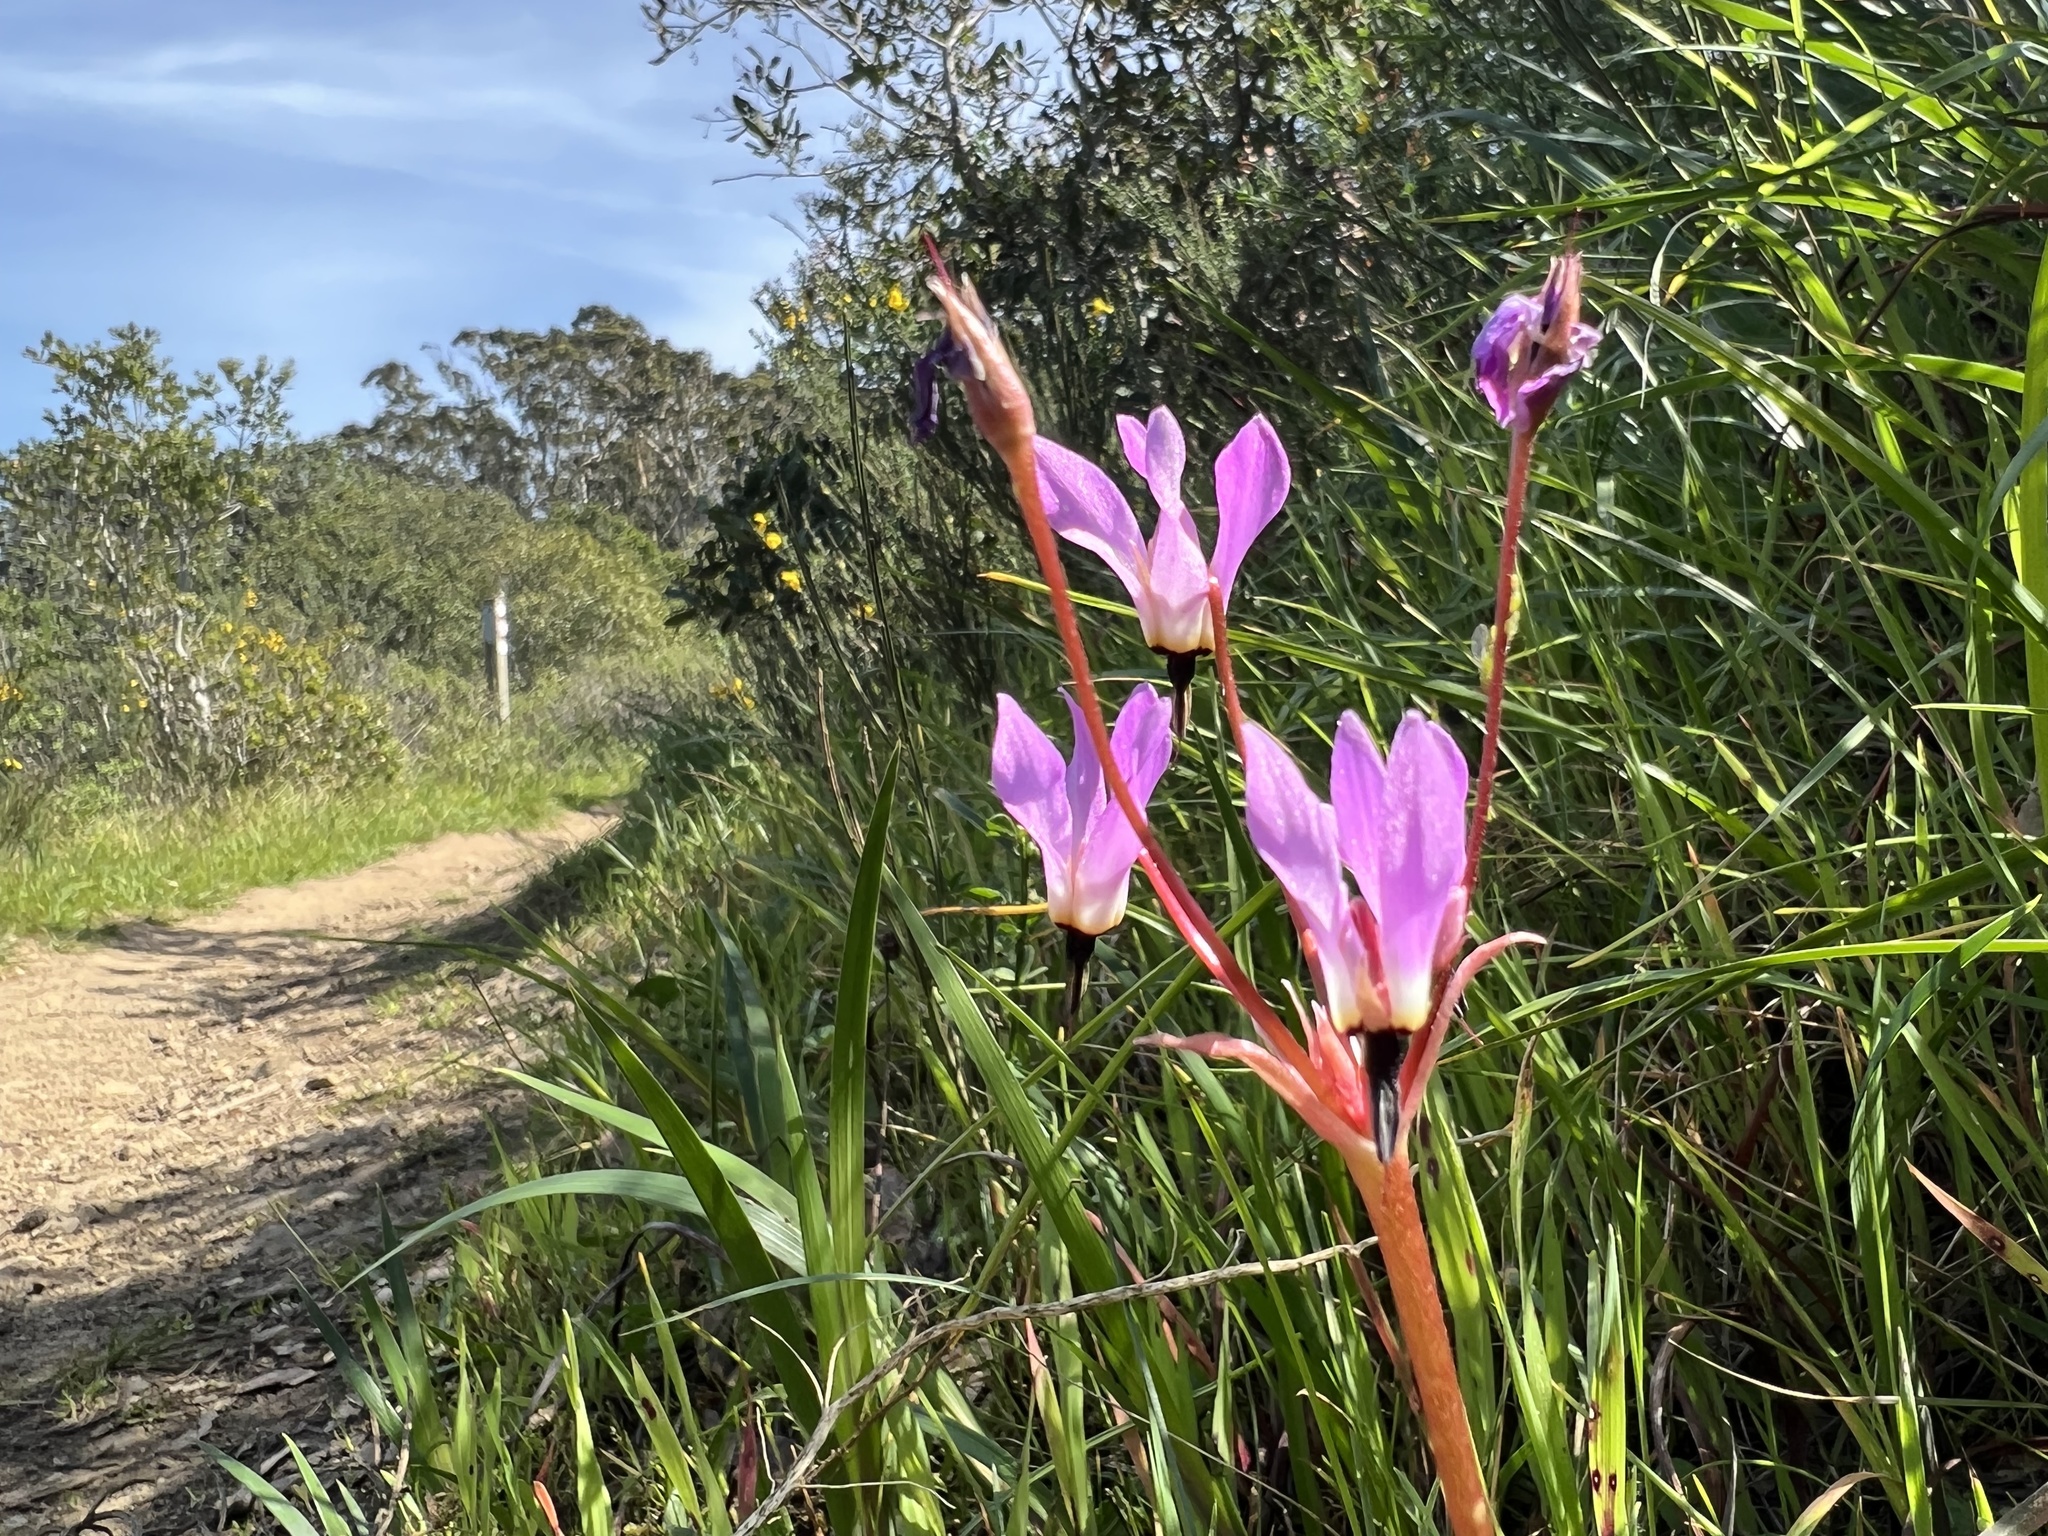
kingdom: Plantae
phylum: Tracheophyta
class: Magnoliopsida
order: Ericales
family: Primulaceae
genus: Dodecatheon
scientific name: Dodecatheon hendersonii
